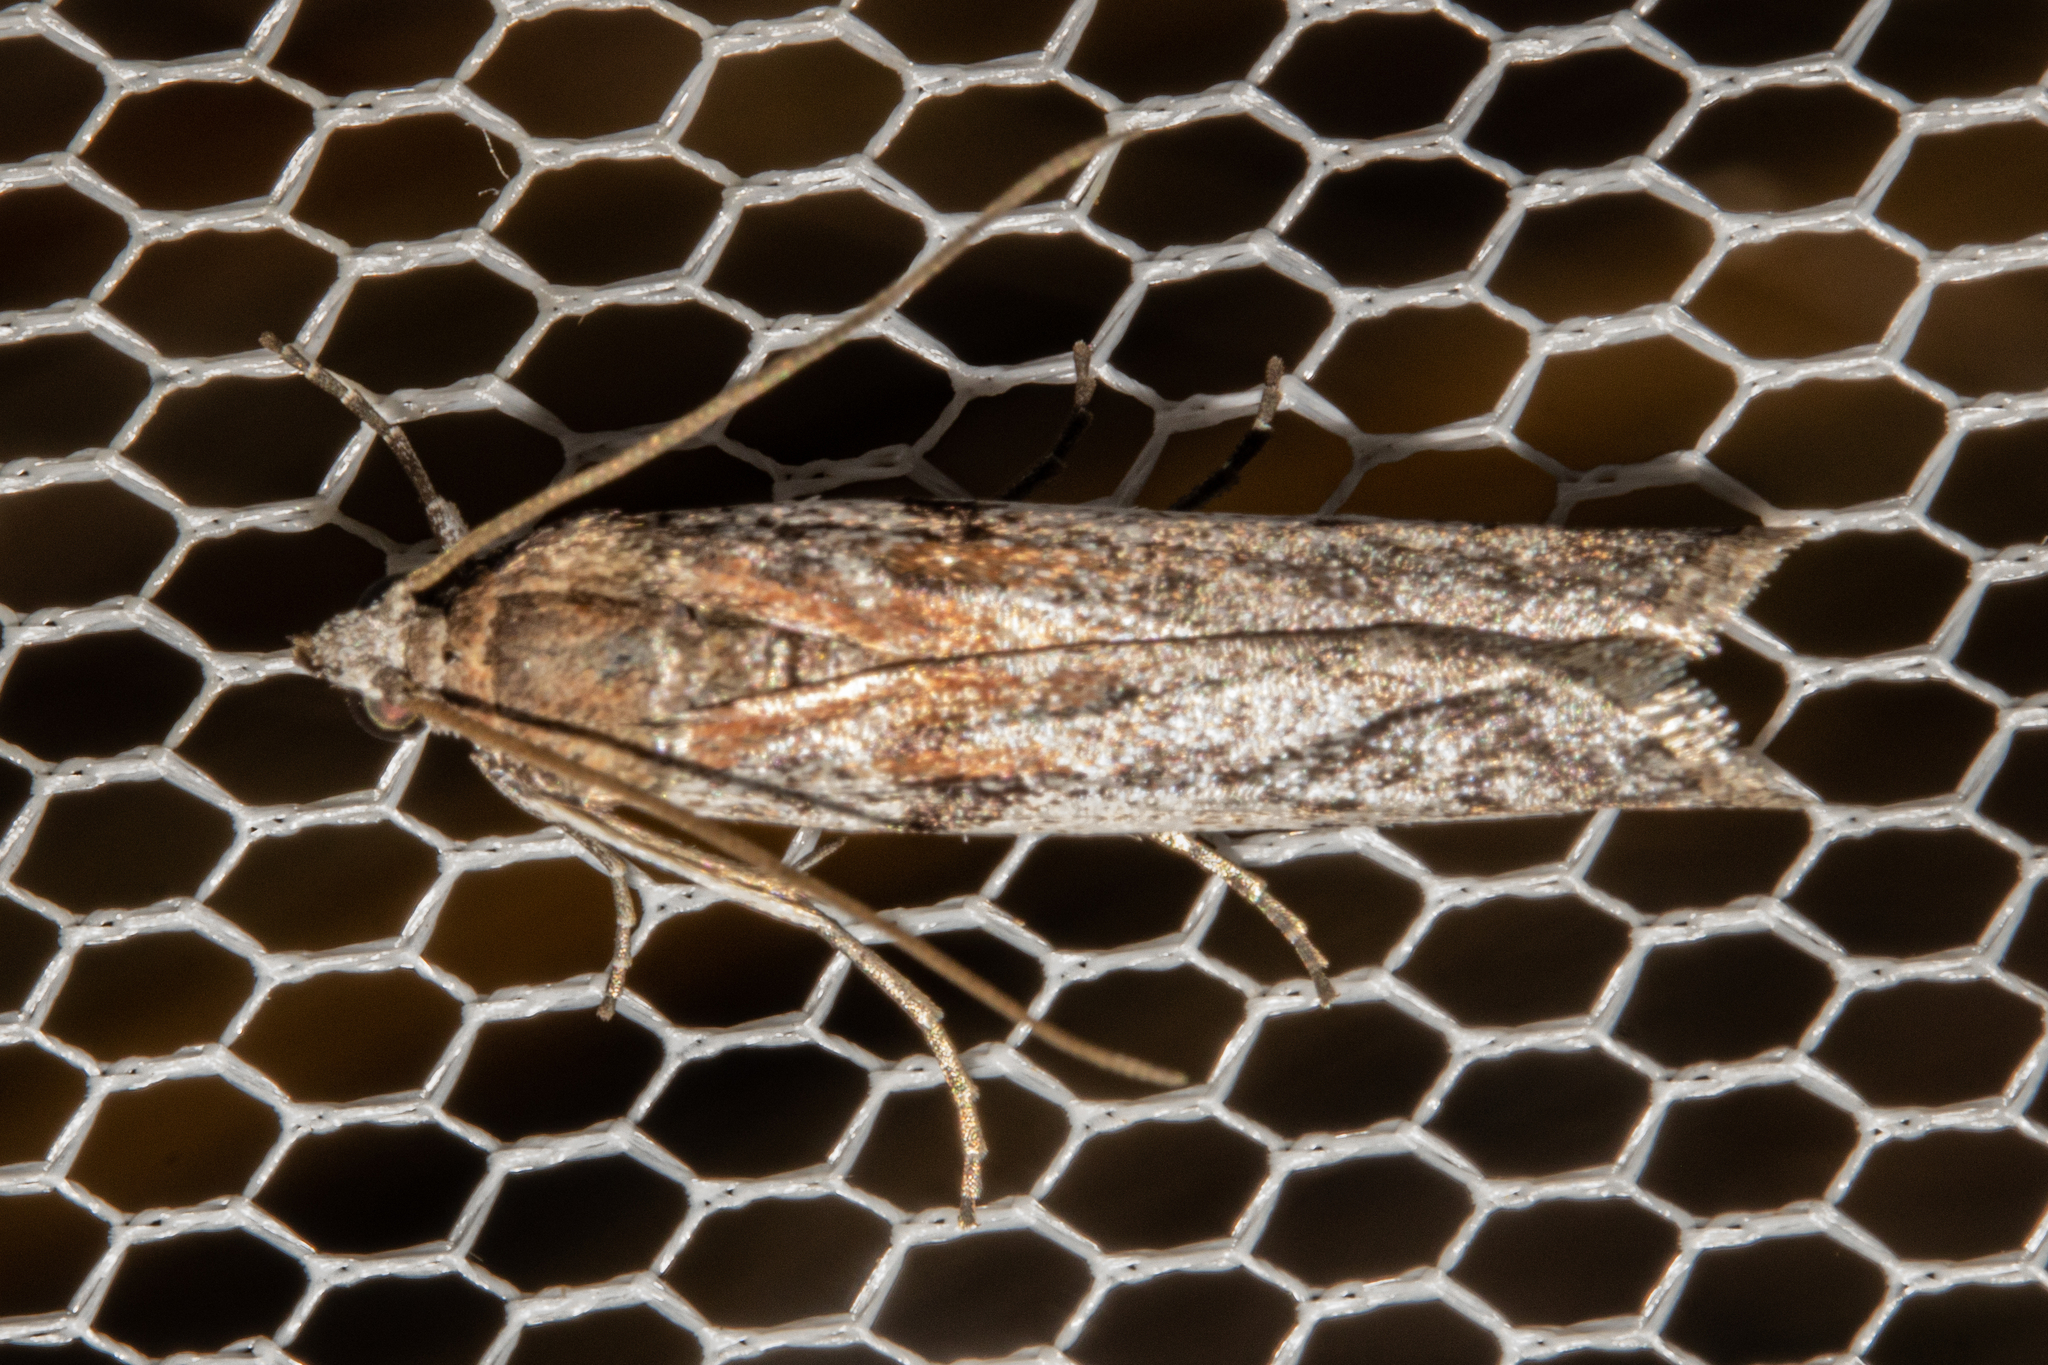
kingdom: Animalia
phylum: Arthropoda
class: Insecta
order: Lepidoptera
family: Pyralidae
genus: Patagoniodes
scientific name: Patagoniodes farinaria
